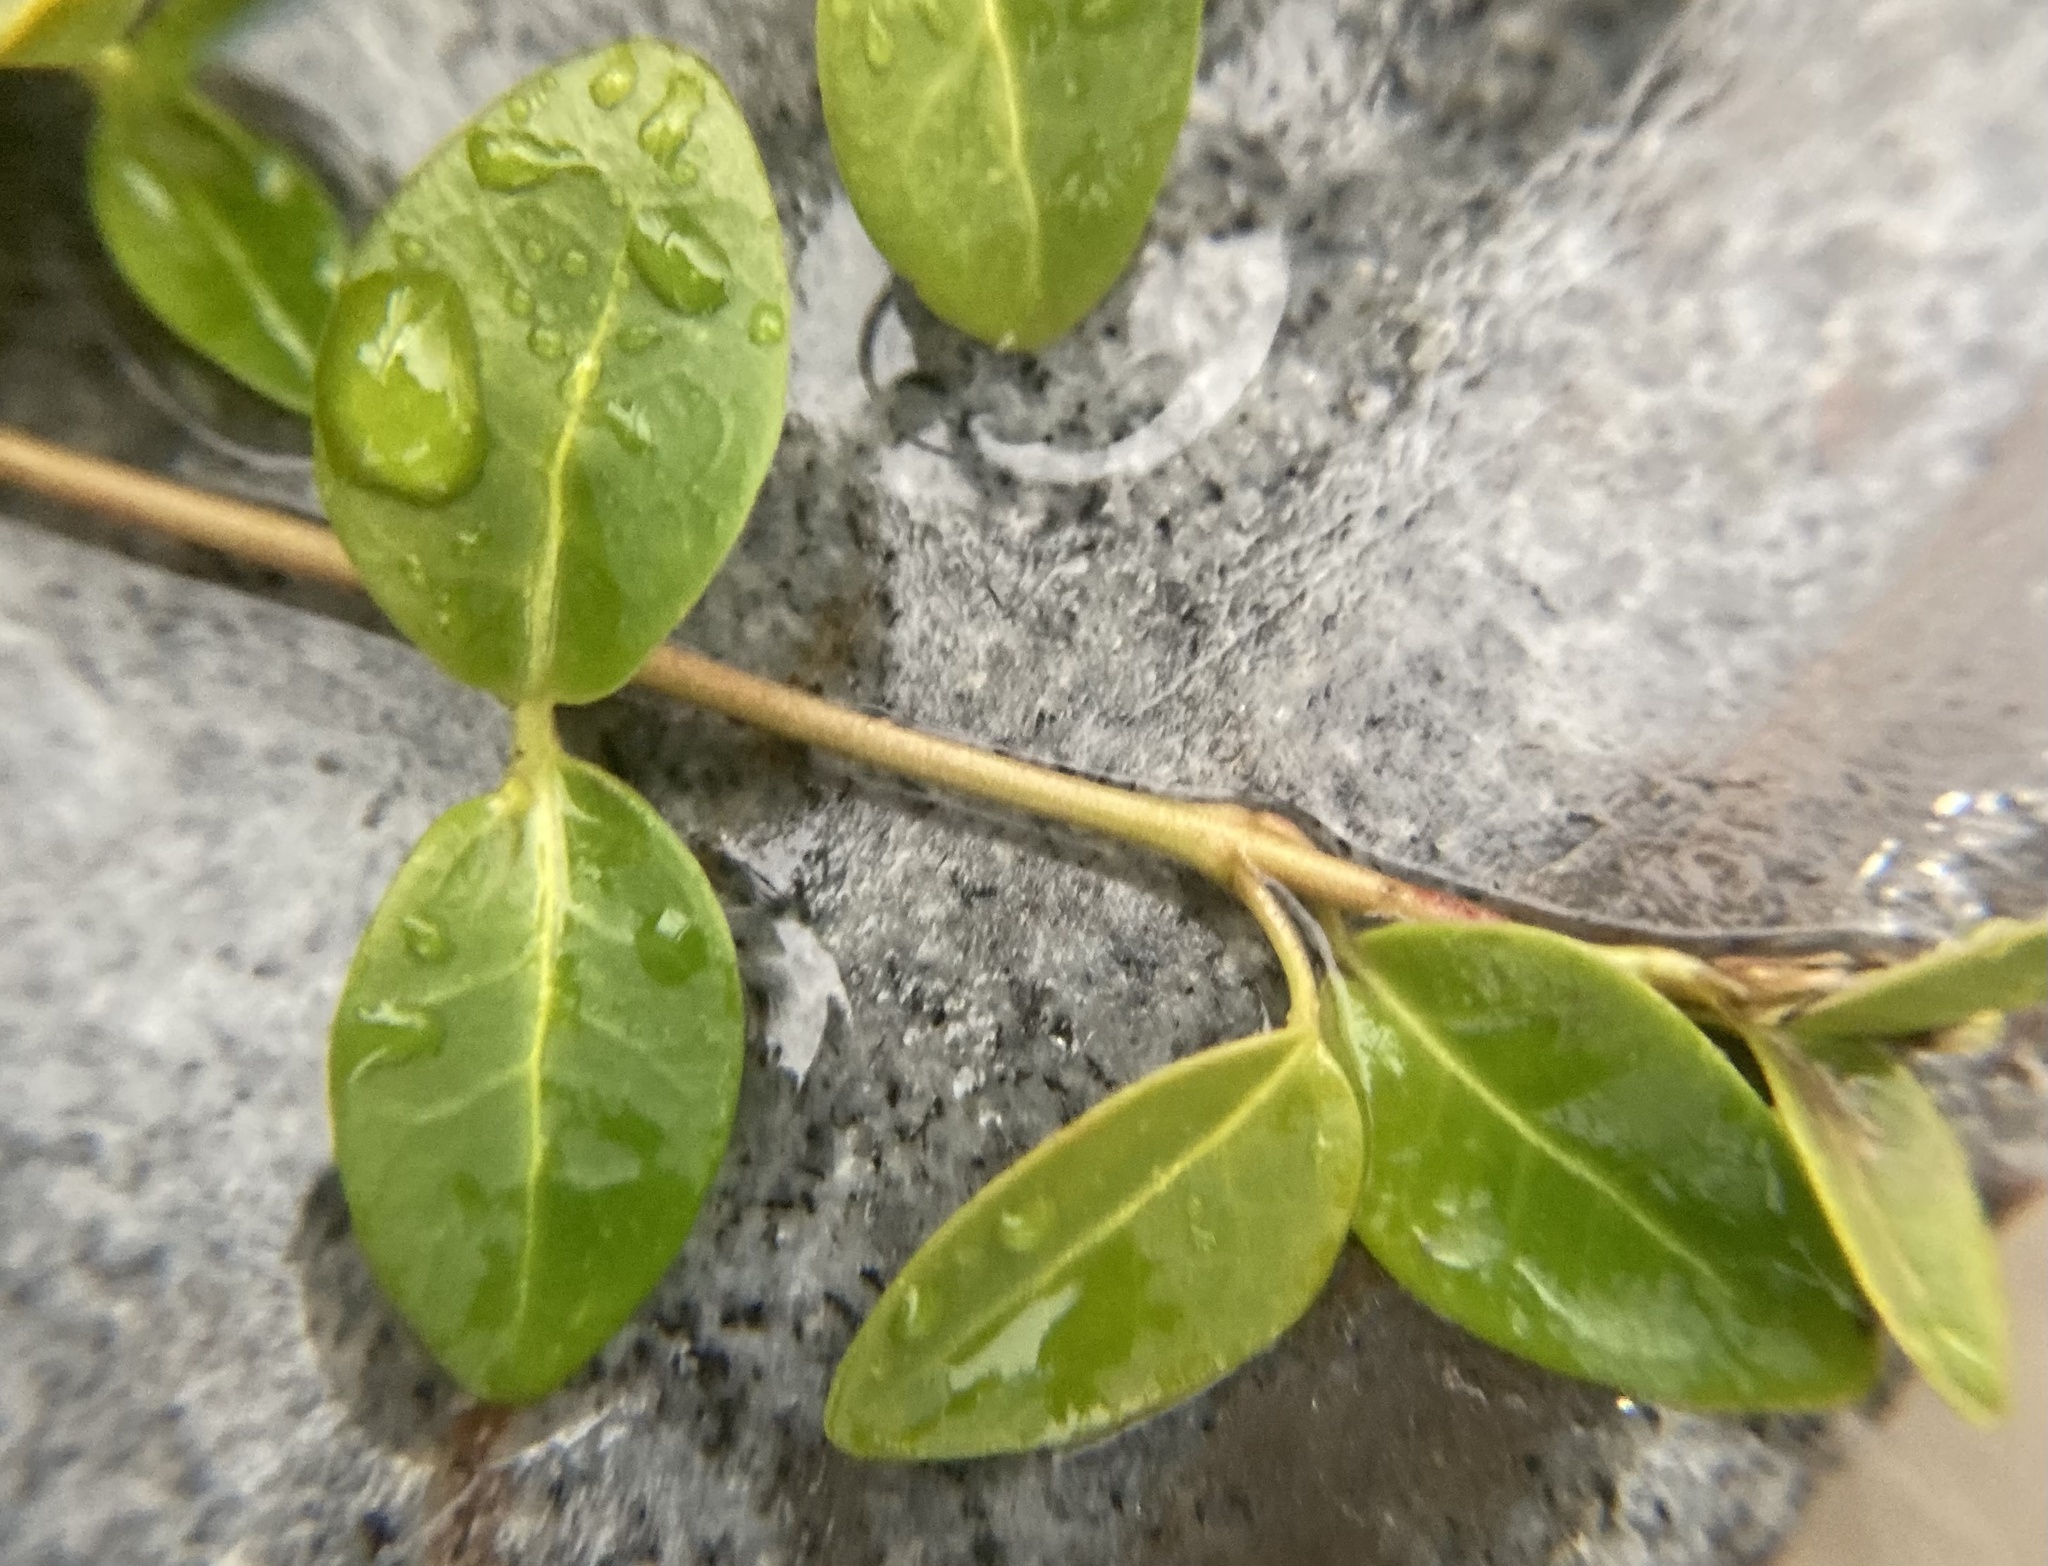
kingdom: Plantae
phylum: Tracheophyta
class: Magnoliopsida
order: Gentianales
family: Apocynaceae
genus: Vinca
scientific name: Vinca minor
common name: Lesser periwinkle
